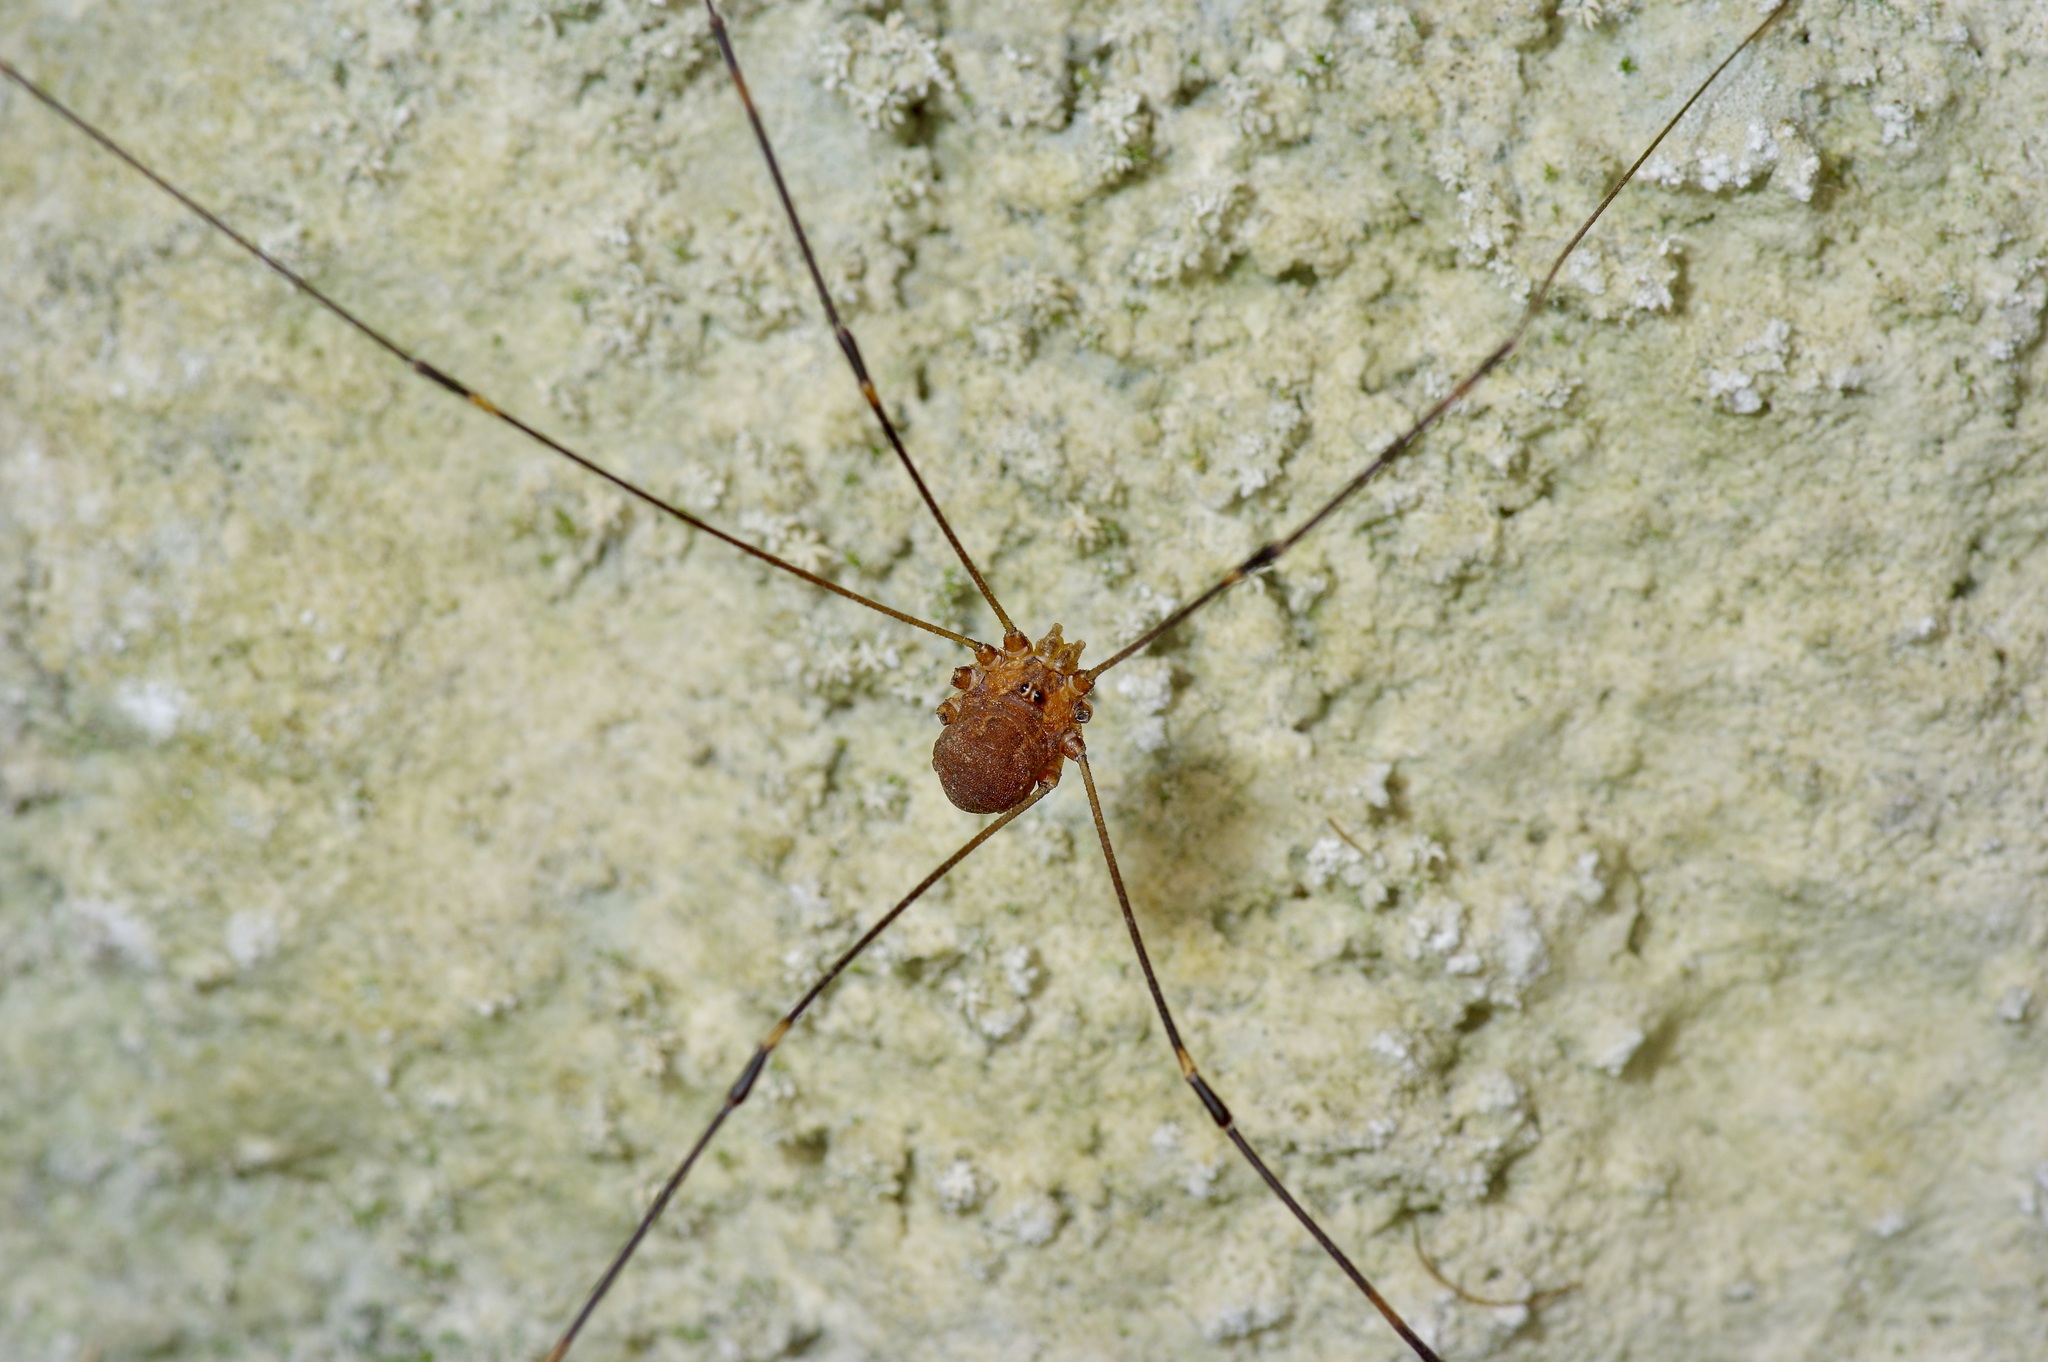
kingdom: Animalia
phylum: Arthropoda
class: Arachnida
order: Opiliones
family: Sclerosomatidae
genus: Leiobunum
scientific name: Leiobunum townsendi
